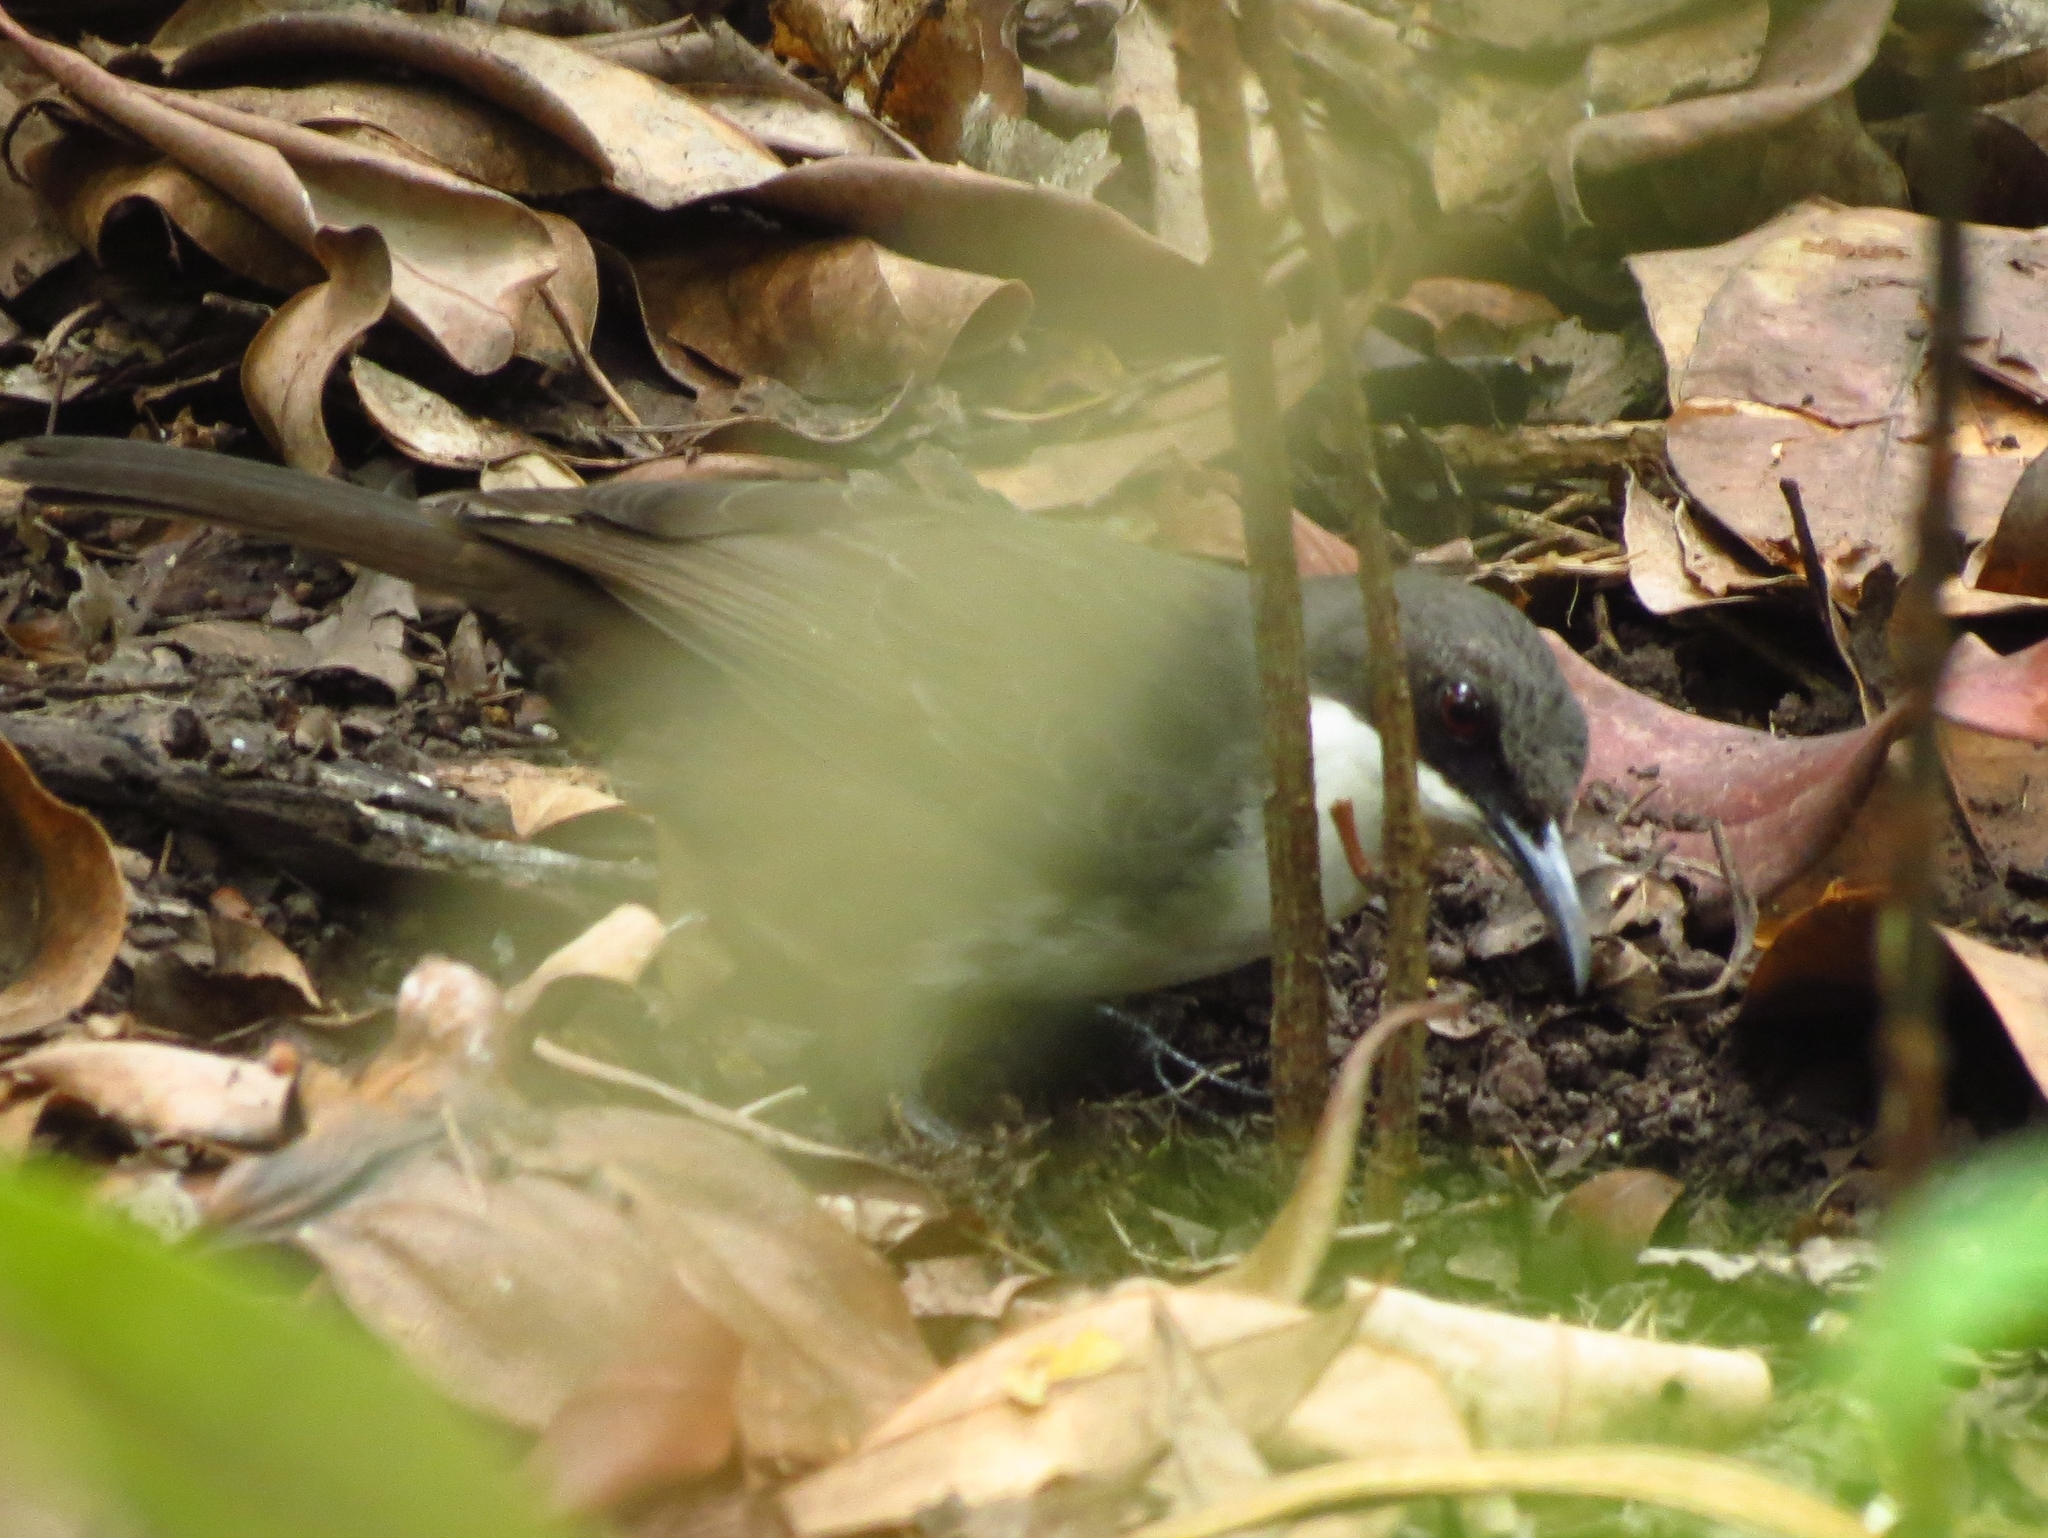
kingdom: Animalia
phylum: Chordata
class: Aves
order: Passeriformes
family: Mimidae
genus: Ramphocinclus
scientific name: Ramphocinclus brachyurus
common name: White-breasted thrasher
